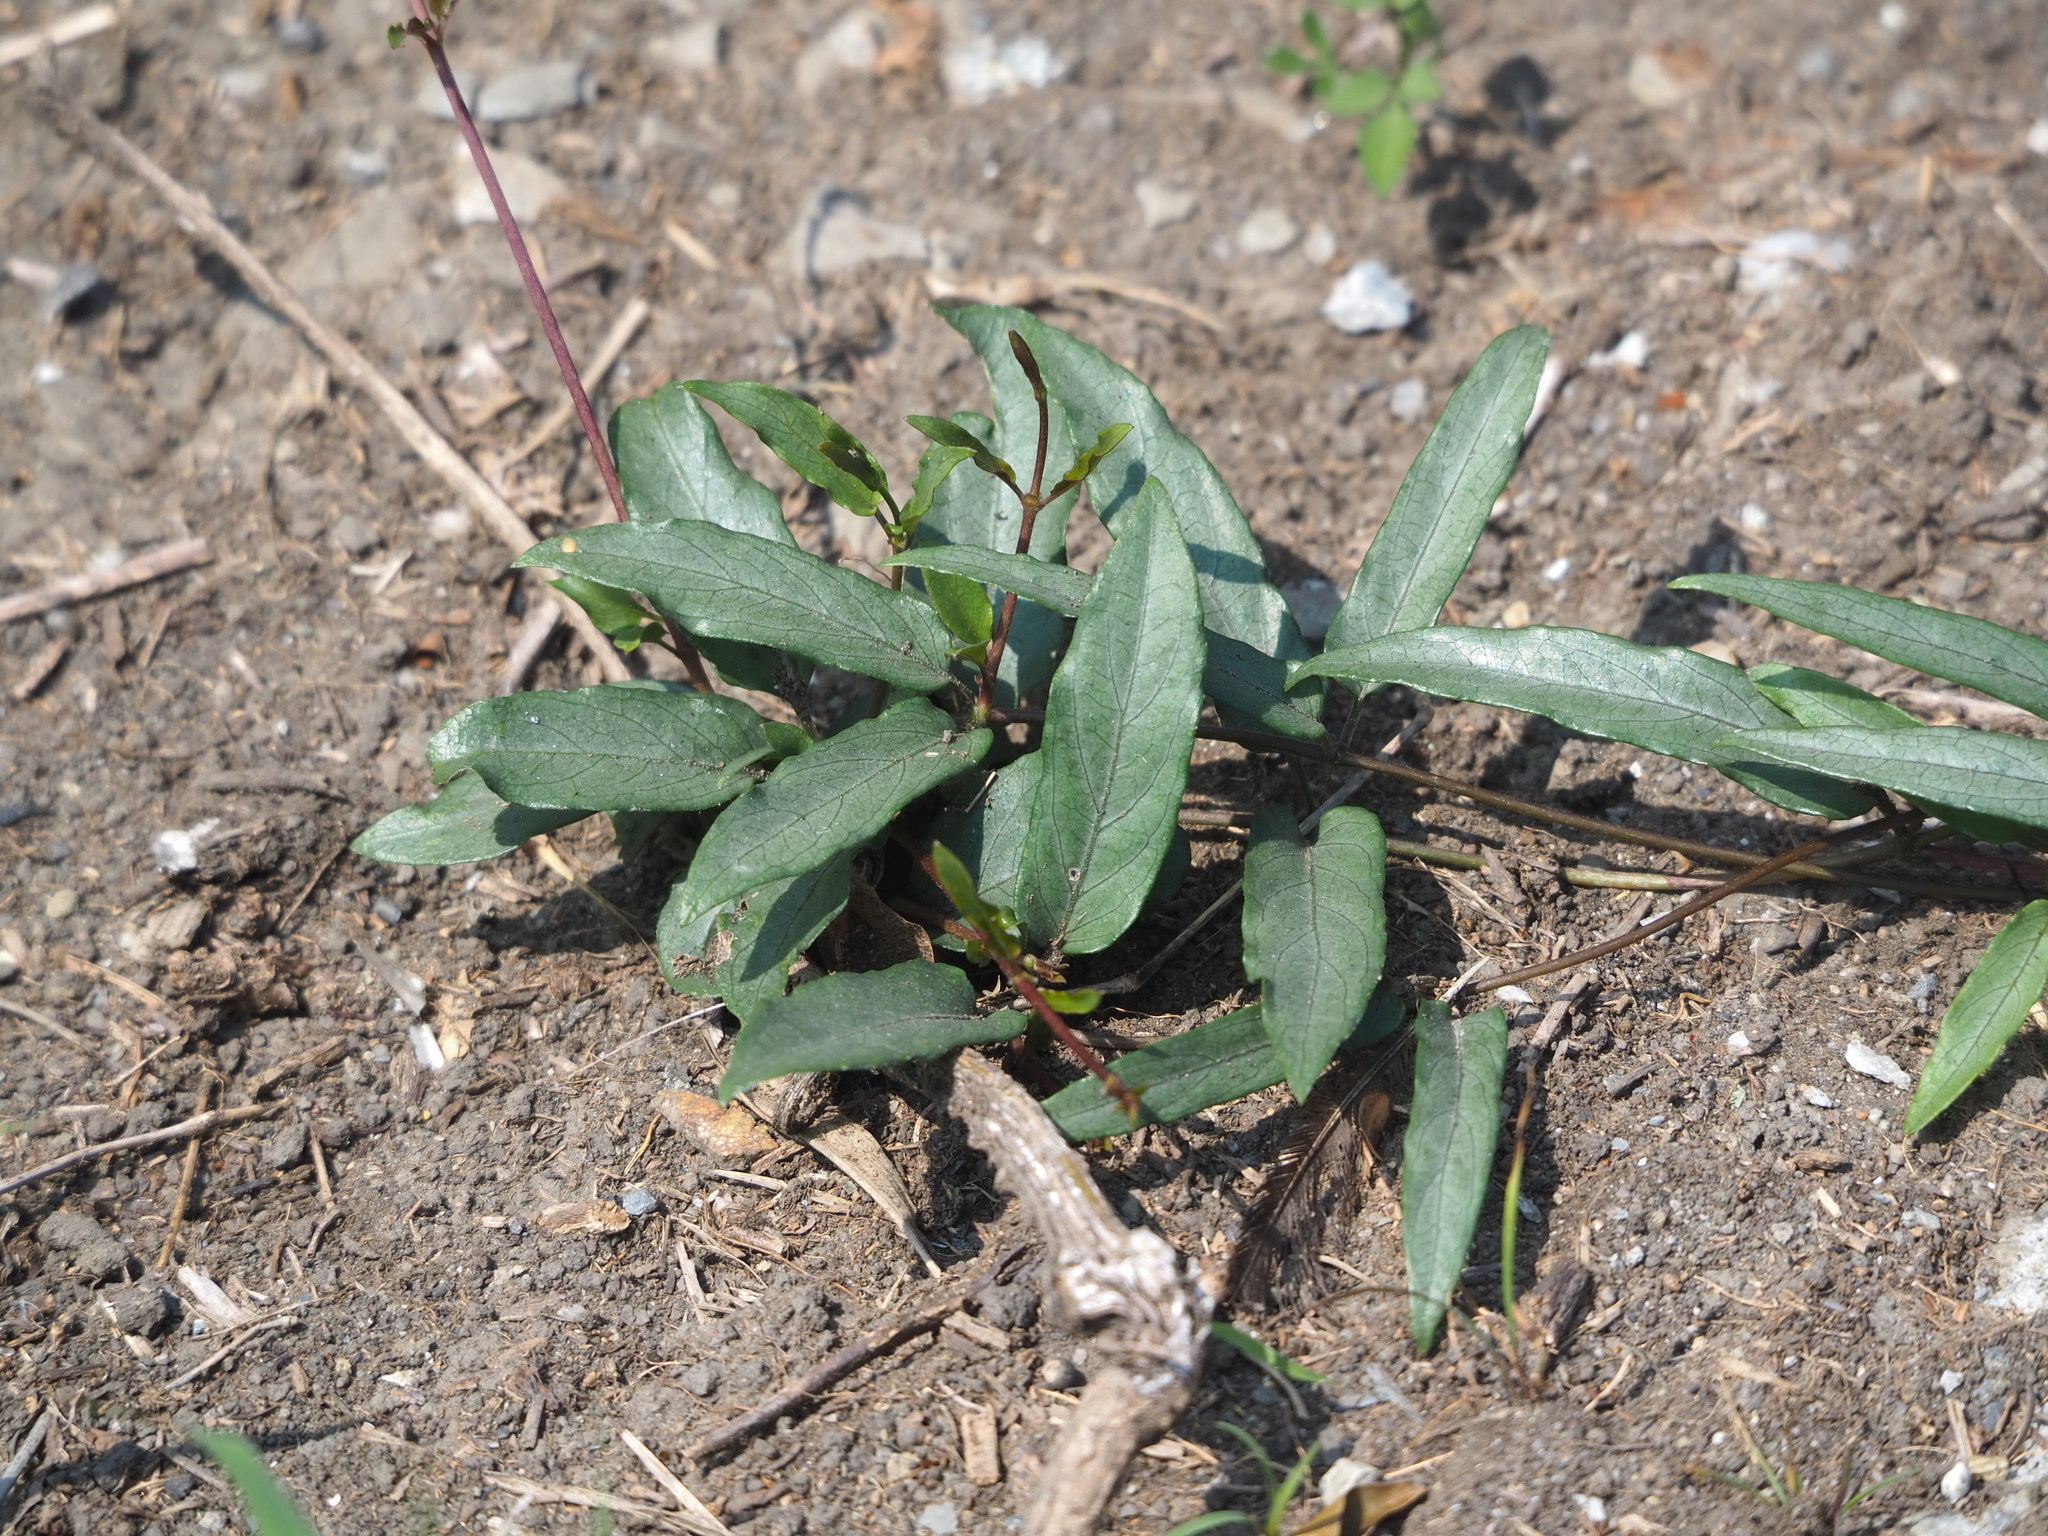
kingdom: Plantae
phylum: Tracheophyta
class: Magnoliopsida
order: Gentianales
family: Rubiaceae
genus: Paederia
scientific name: Paederia foetida
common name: Stinkvine
